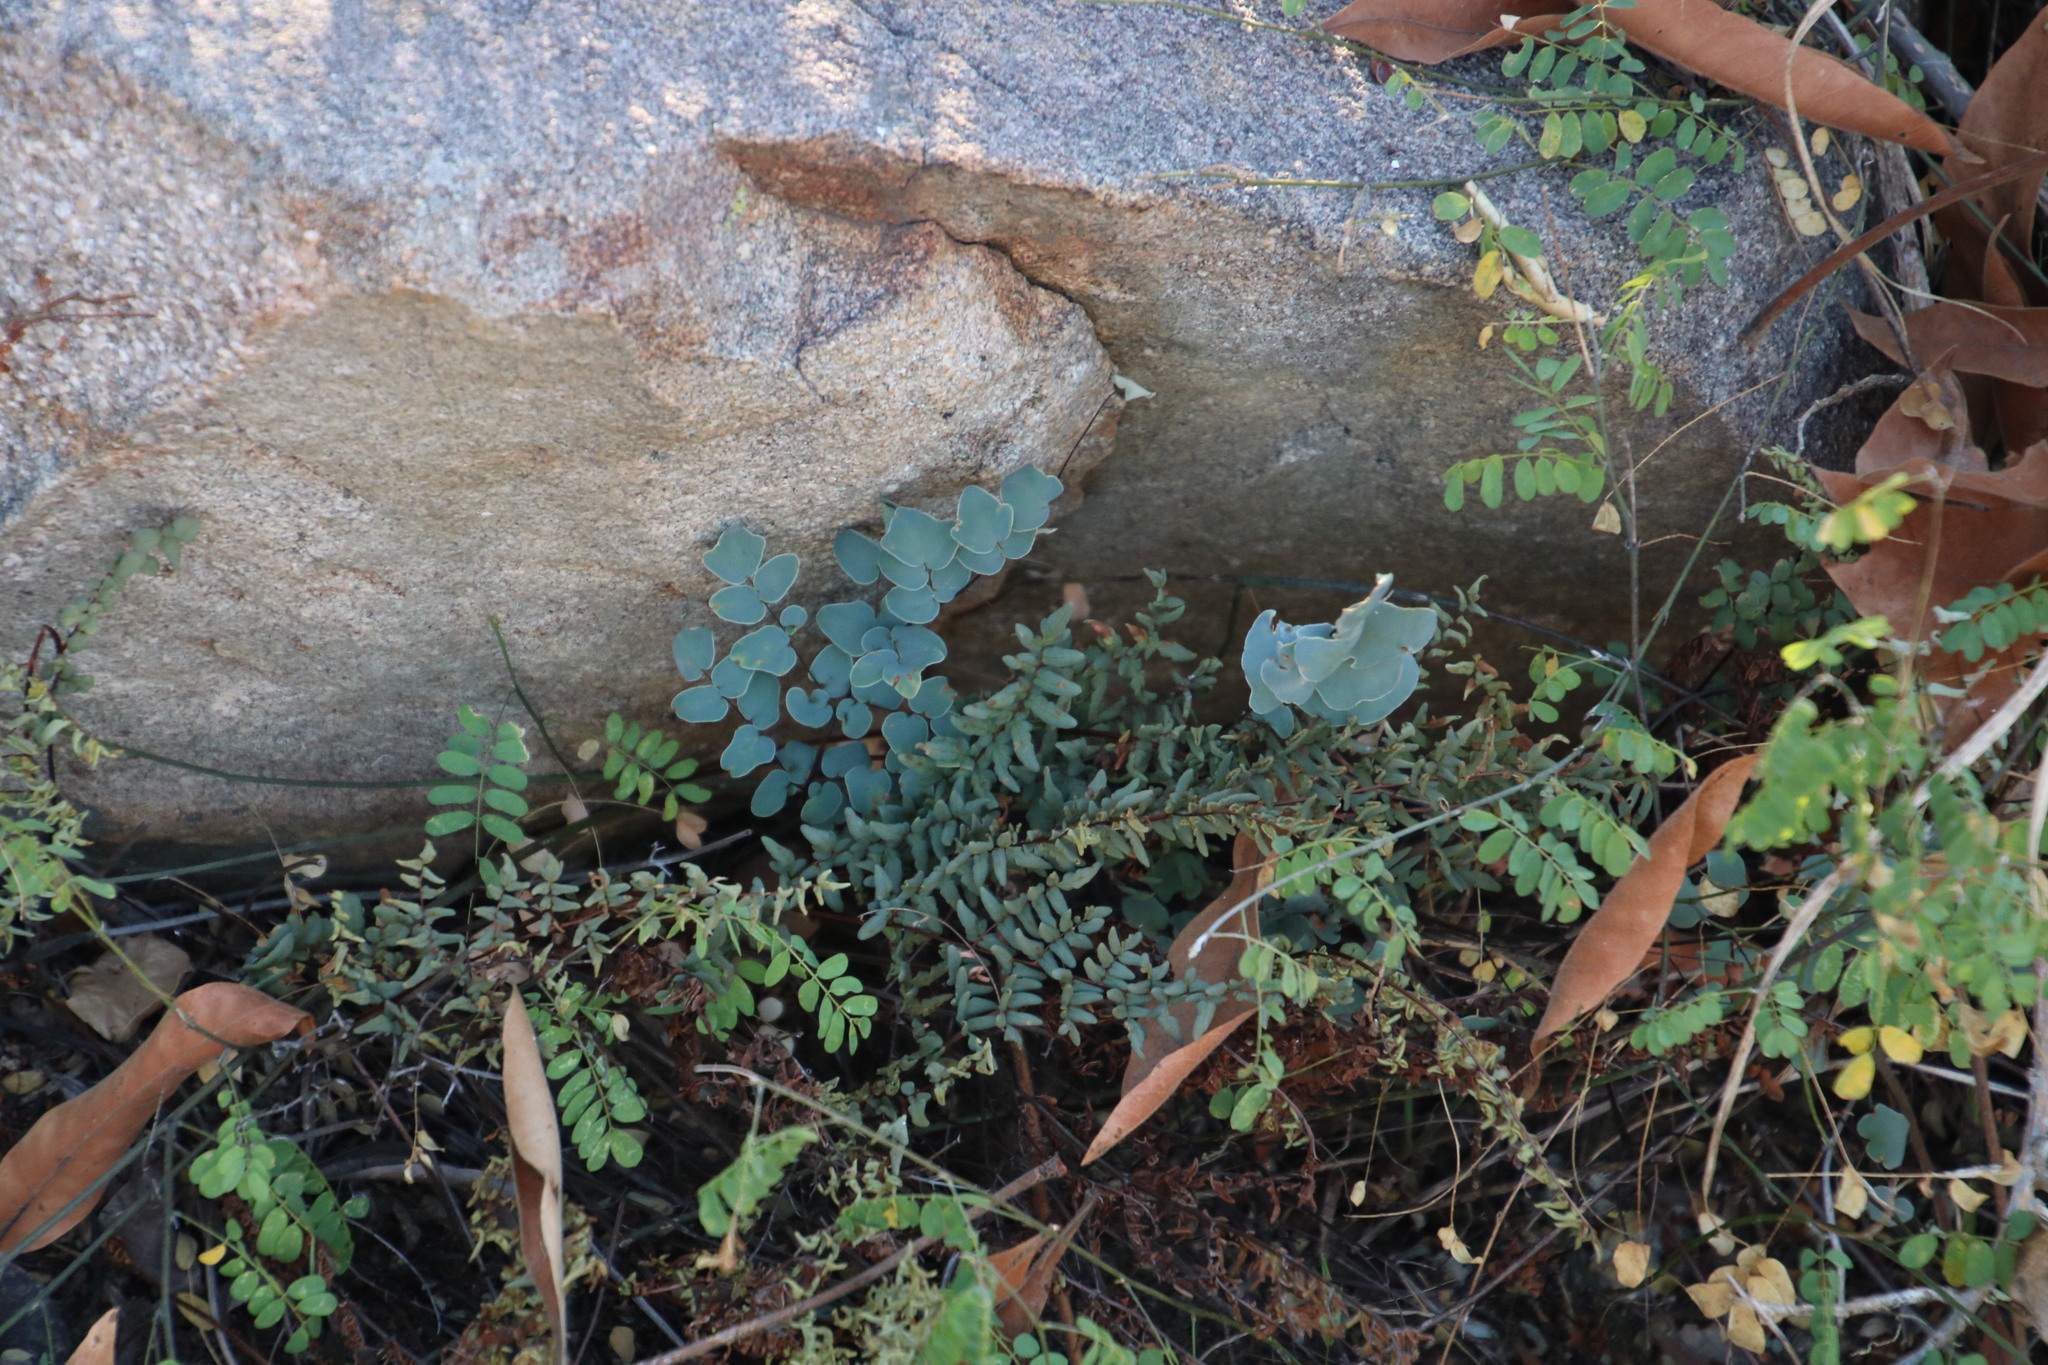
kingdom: Plantae
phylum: Tracheophyta
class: Polypodiopsida
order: Polypodiales
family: Pteridaceae
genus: Pellaea
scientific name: Pellaea calomelanos
